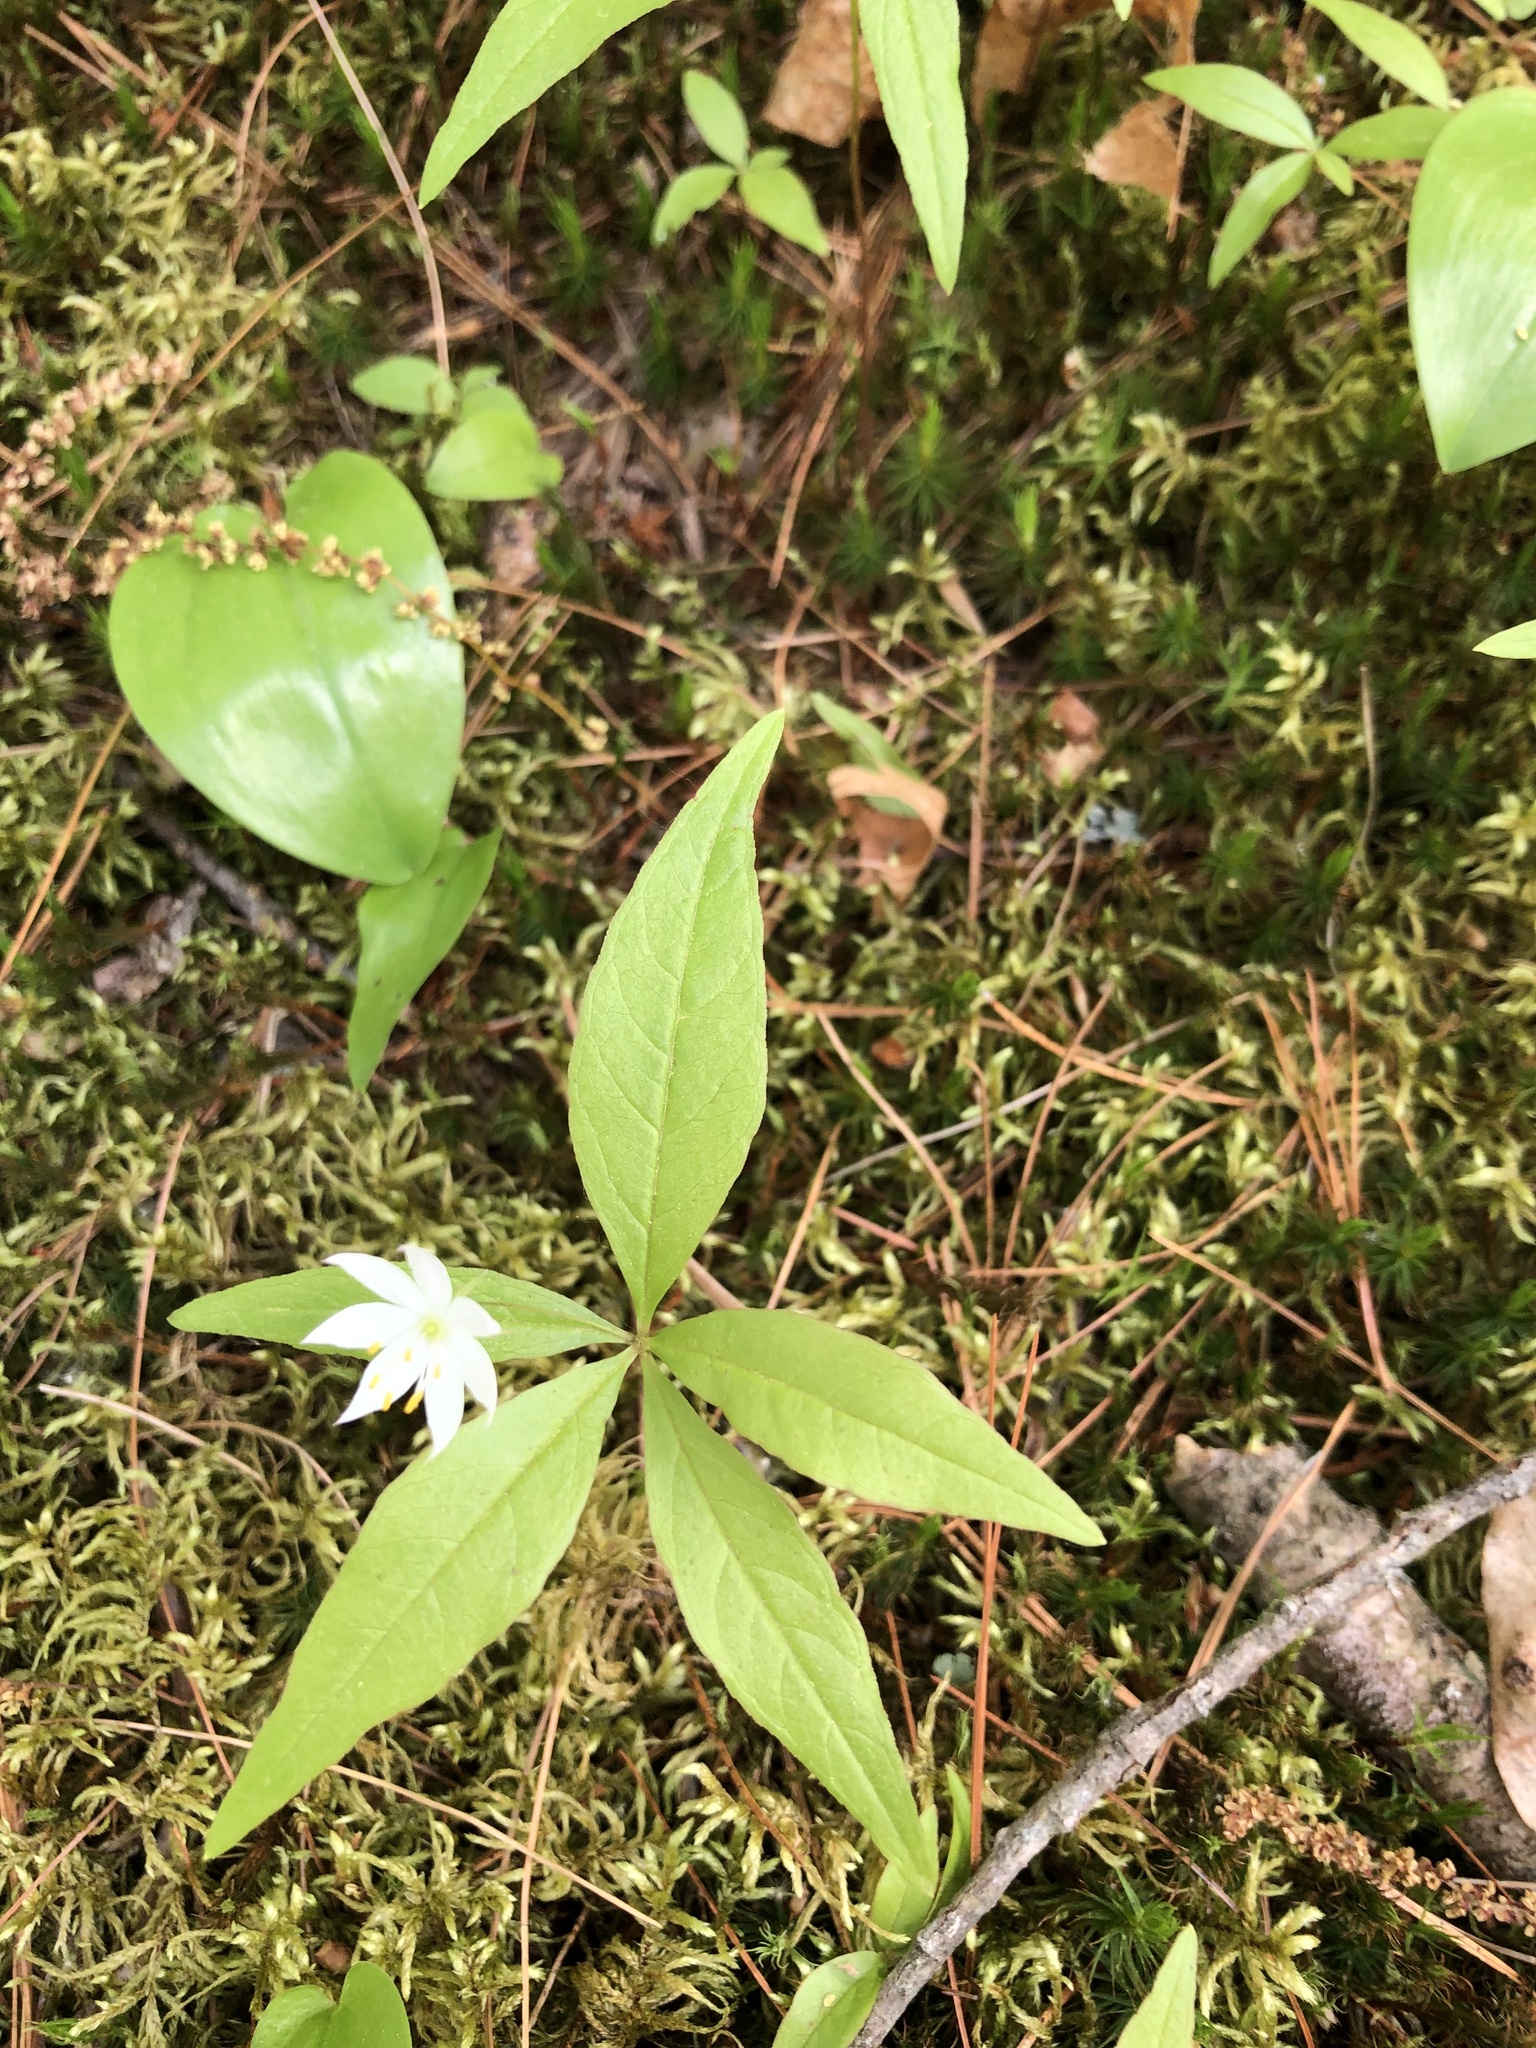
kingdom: Plantae
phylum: Tracheophyta
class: Magnoliopsida
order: Ericales
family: Primulaceae
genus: Lysimachia
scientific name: Lysimachia borealis
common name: American starflower
